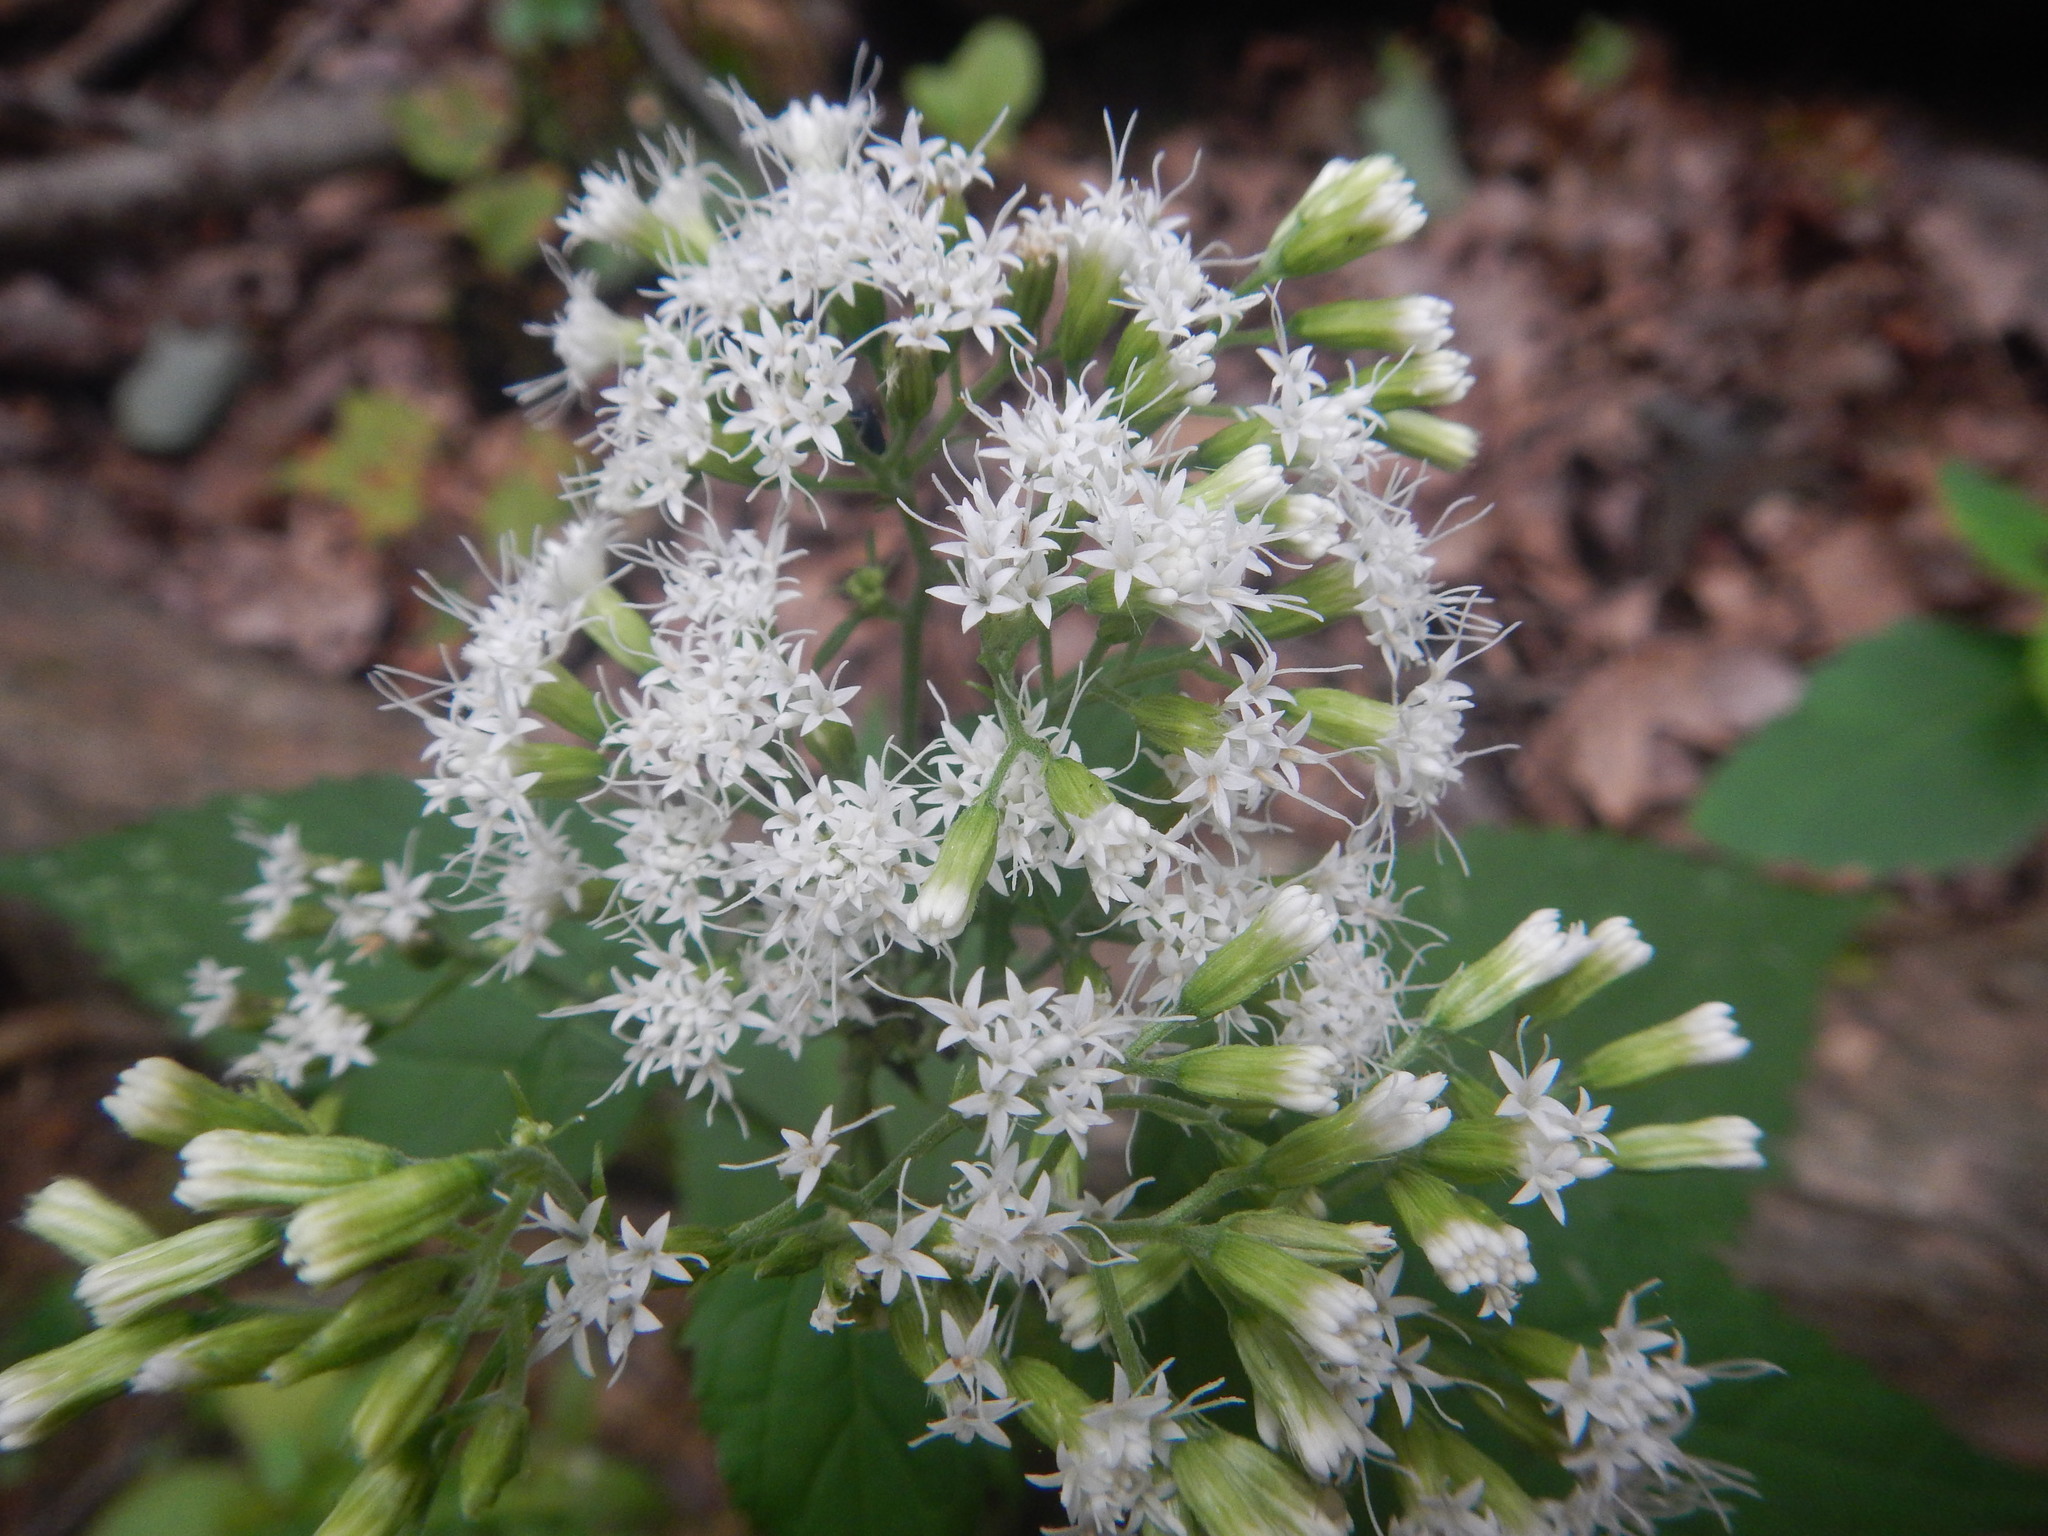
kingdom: Plantae
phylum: Tracheophyta
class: Magnoliopsida
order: Asterales
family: Asteraceae
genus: Ageratina
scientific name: Ageratina altissima
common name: White snakeroot
